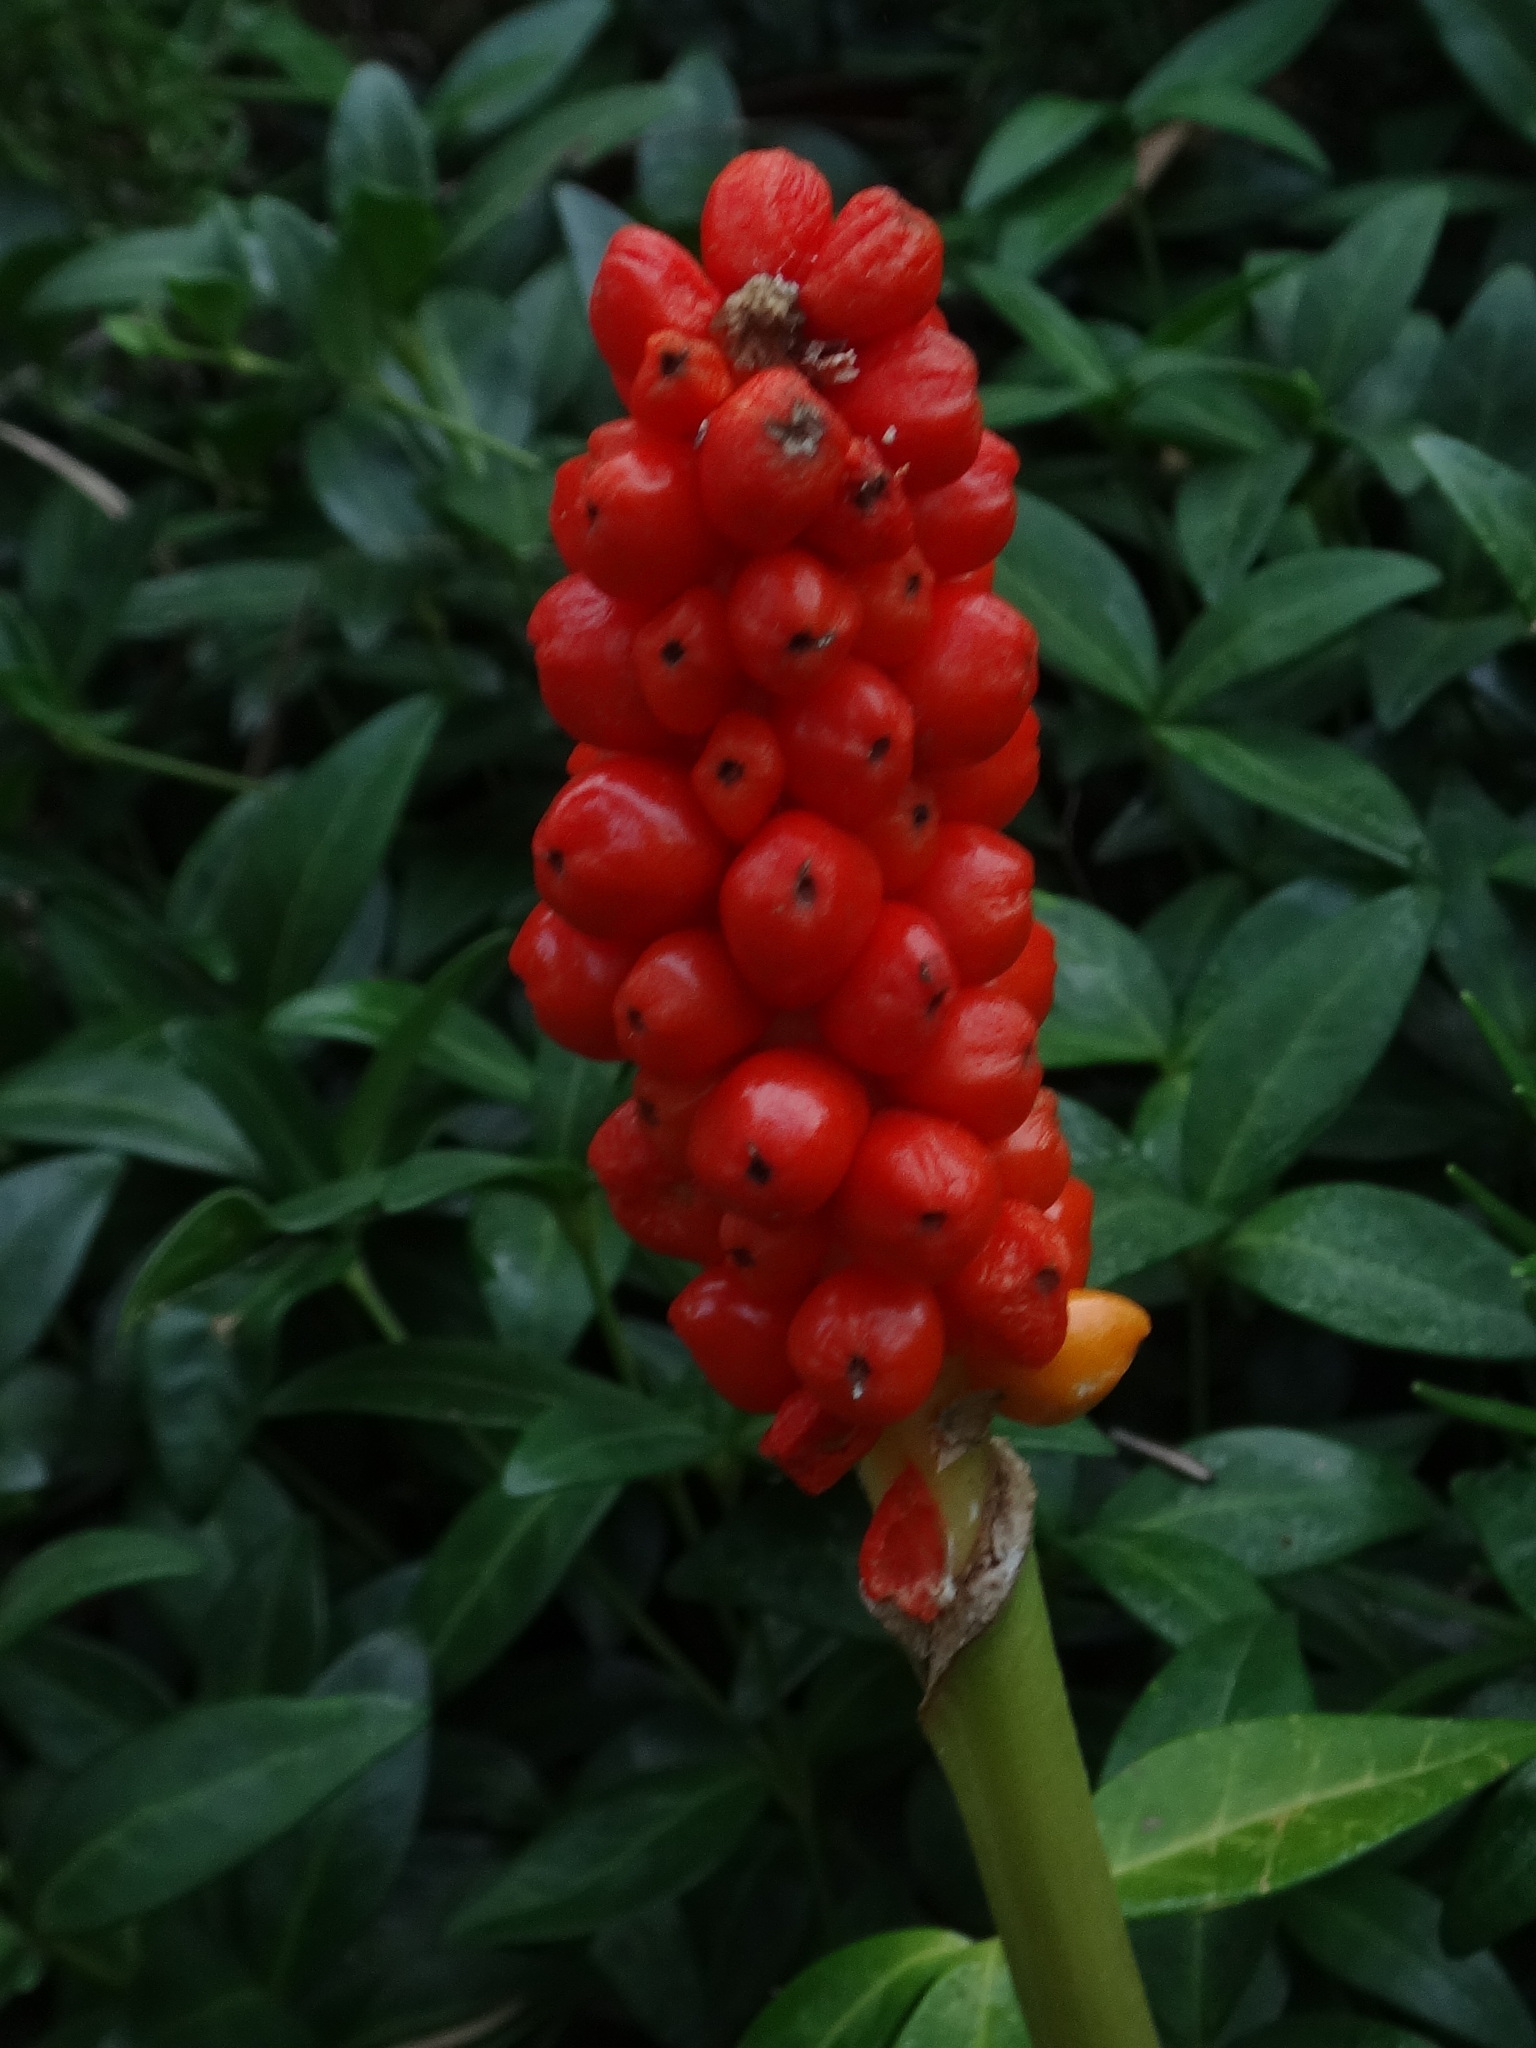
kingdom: Plantae
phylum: Tracheophyta
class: Liliopsida
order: Alismatales
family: Araceae
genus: Arum
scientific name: Arum italicum
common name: Italian lords-and-ladies
